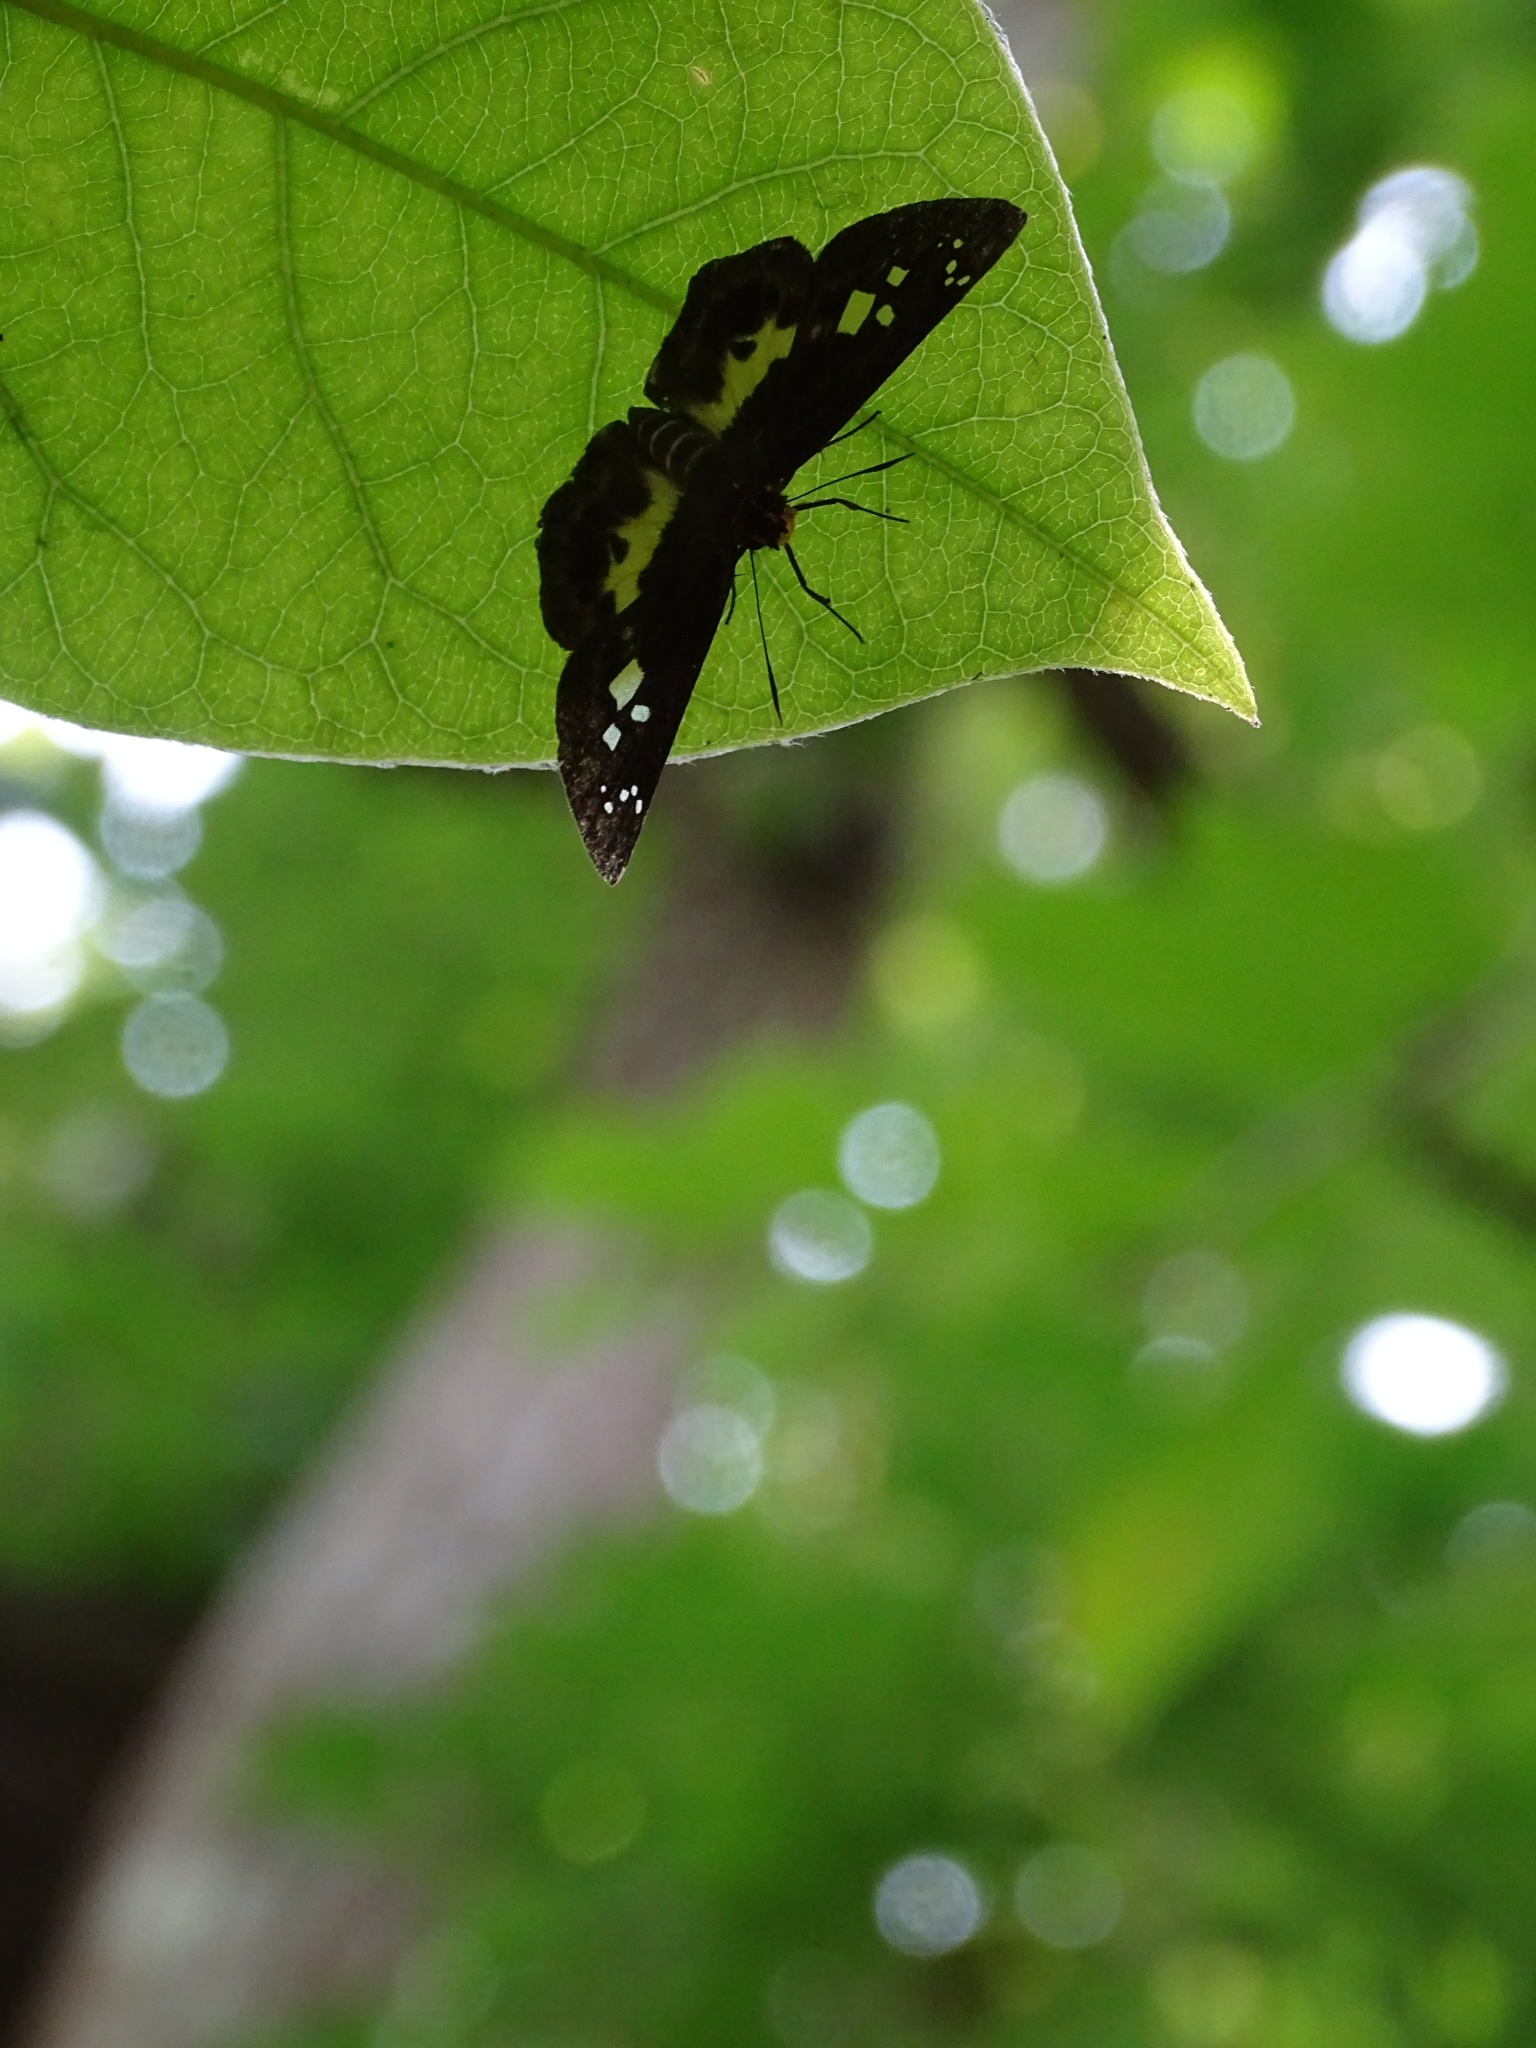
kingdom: Animalia
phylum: Arthropoda
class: Insecta
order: Lepidoptera
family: Hesperiidae
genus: Daimio
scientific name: Daimio Gerosis phisara
